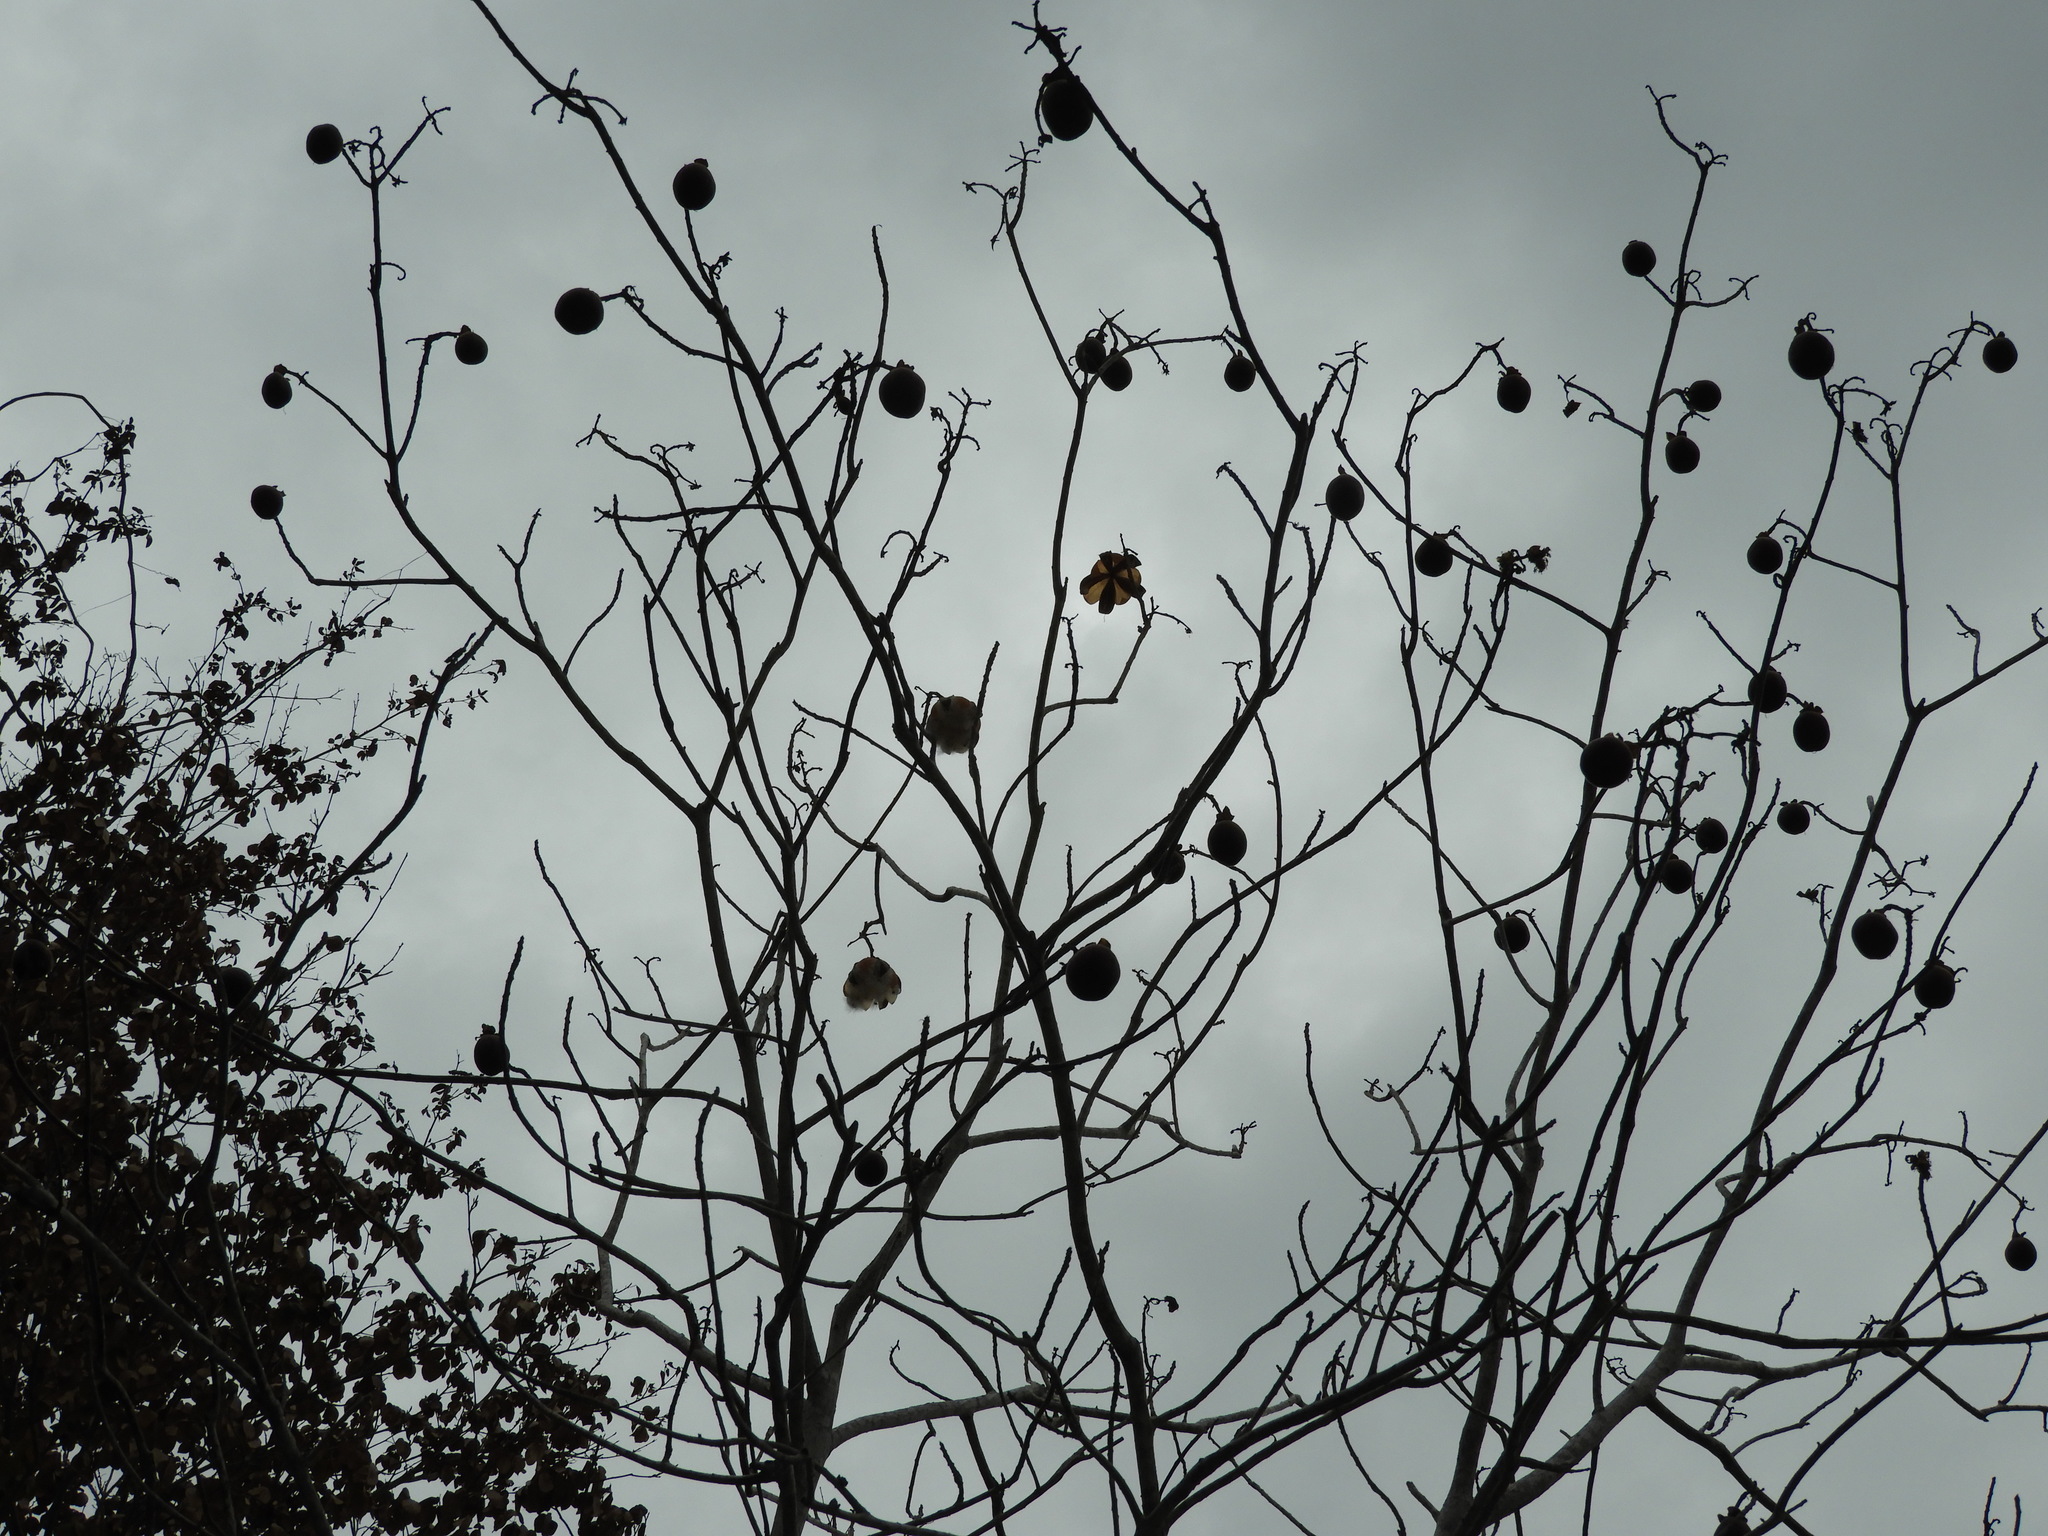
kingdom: Plantae
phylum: Tracheophyta
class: Magnoliopsida
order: Malvales
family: Cochlospermaceae
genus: Cochlospermum
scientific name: Cochlospermum vitifolium
